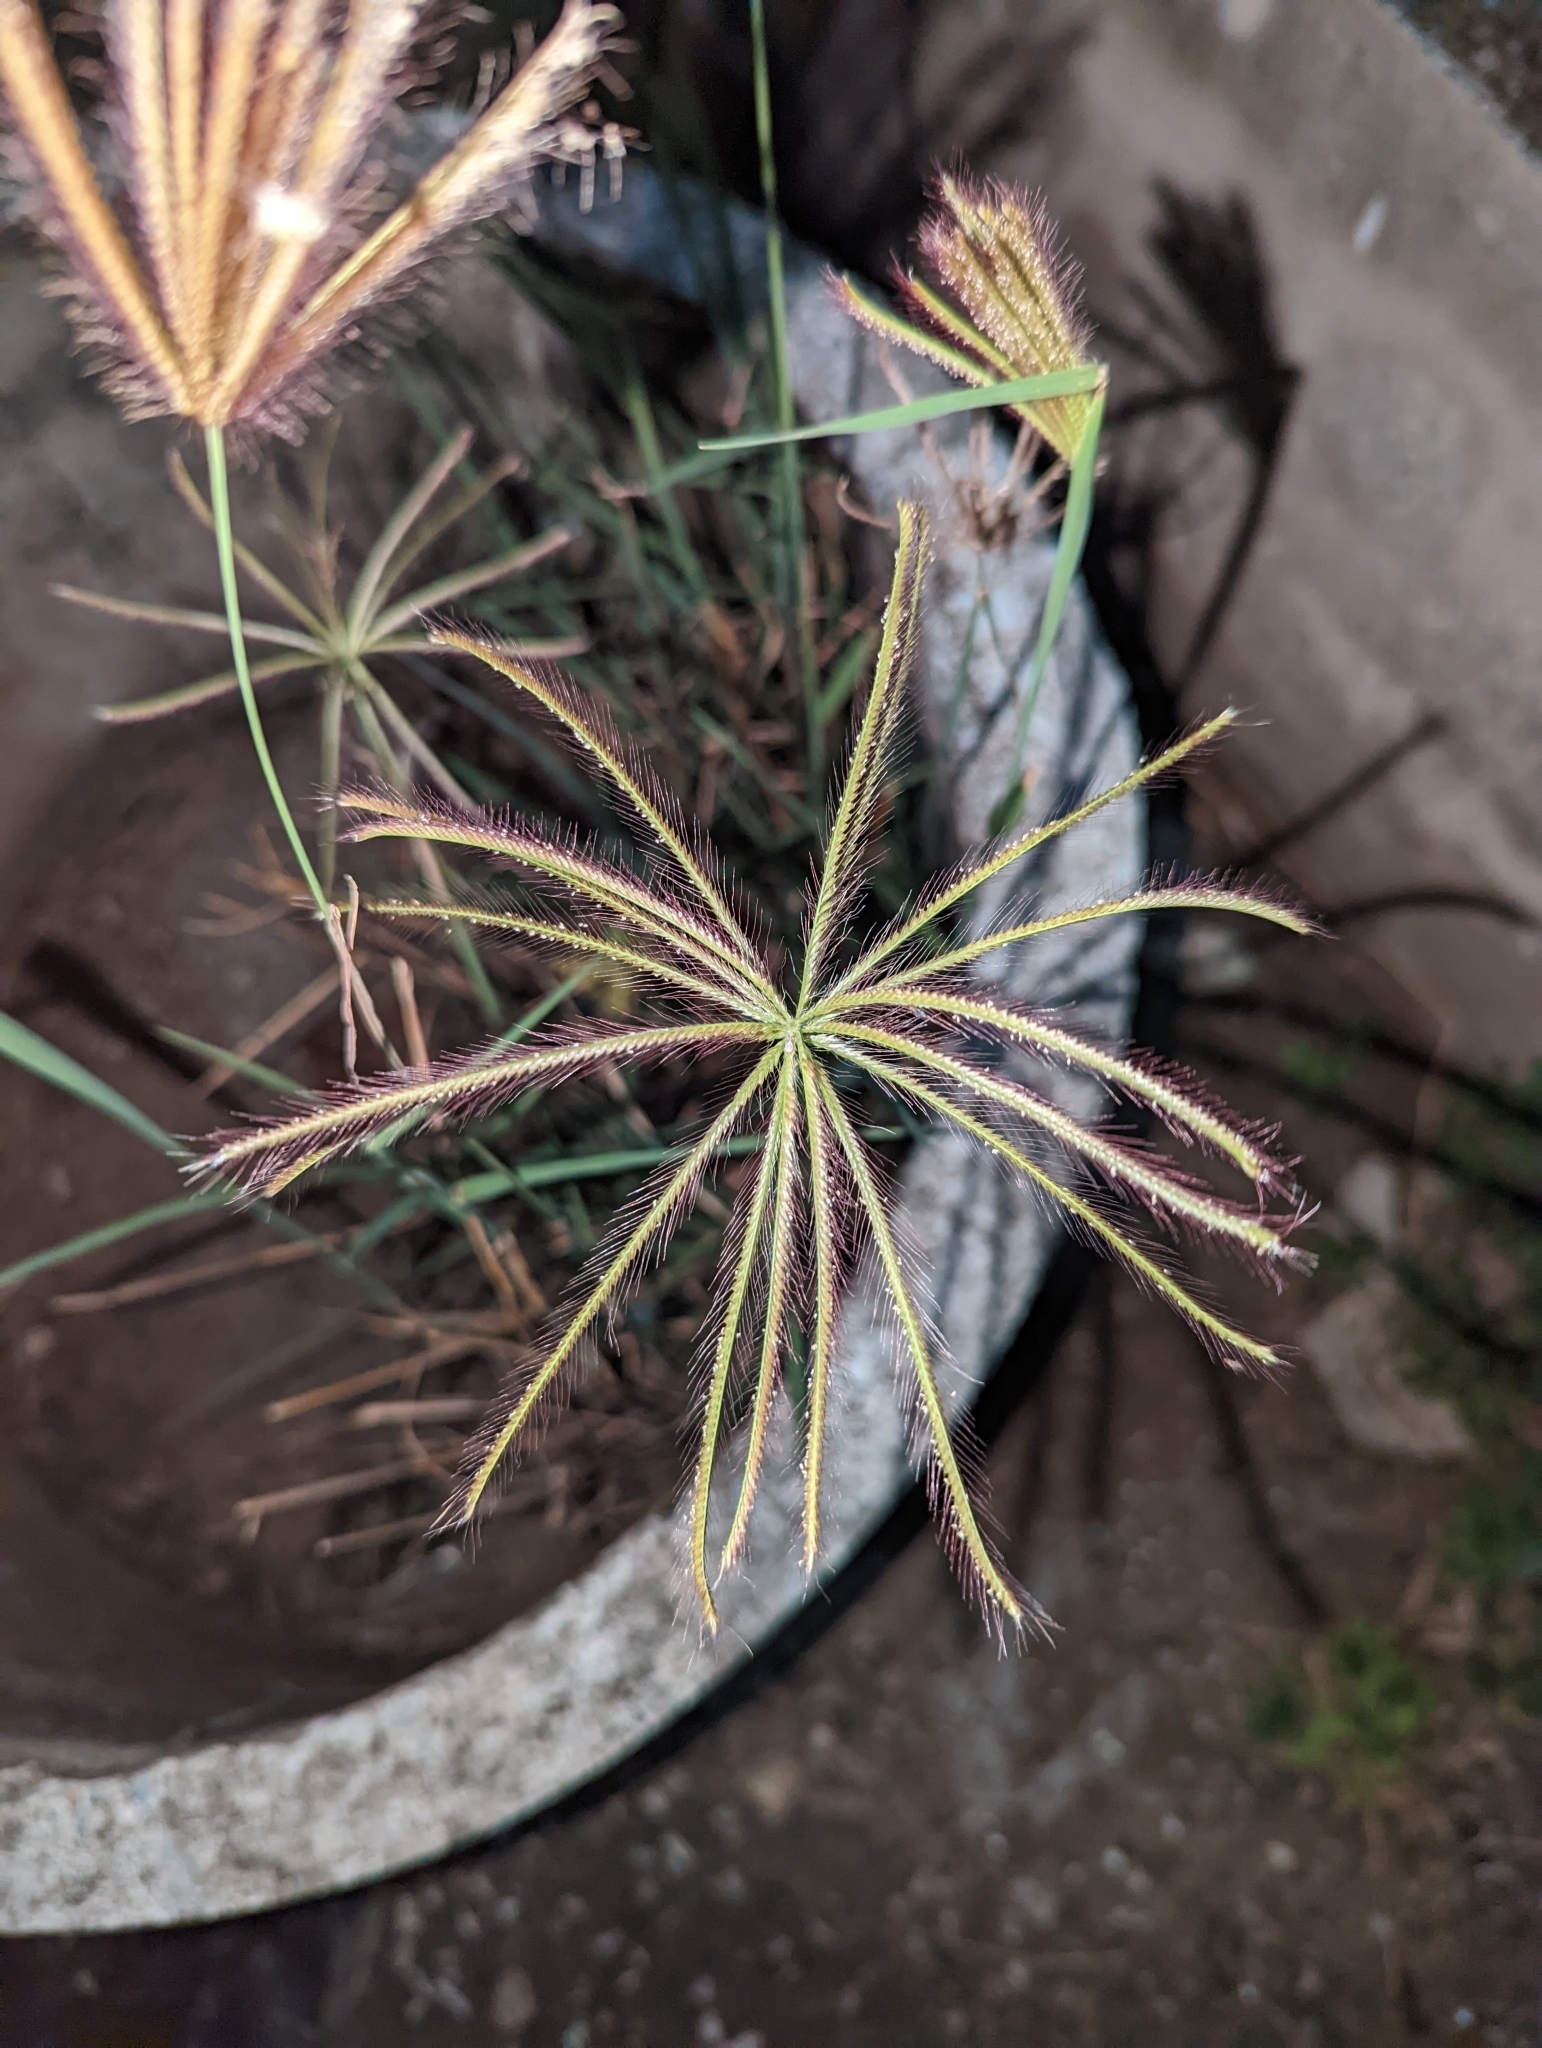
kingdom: Plantae
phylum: Tracheophyta
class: Liliopsida
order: Poales
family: Poaceae
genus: Chloris
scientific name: Chloris barbata
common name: Swollen fingergrass
